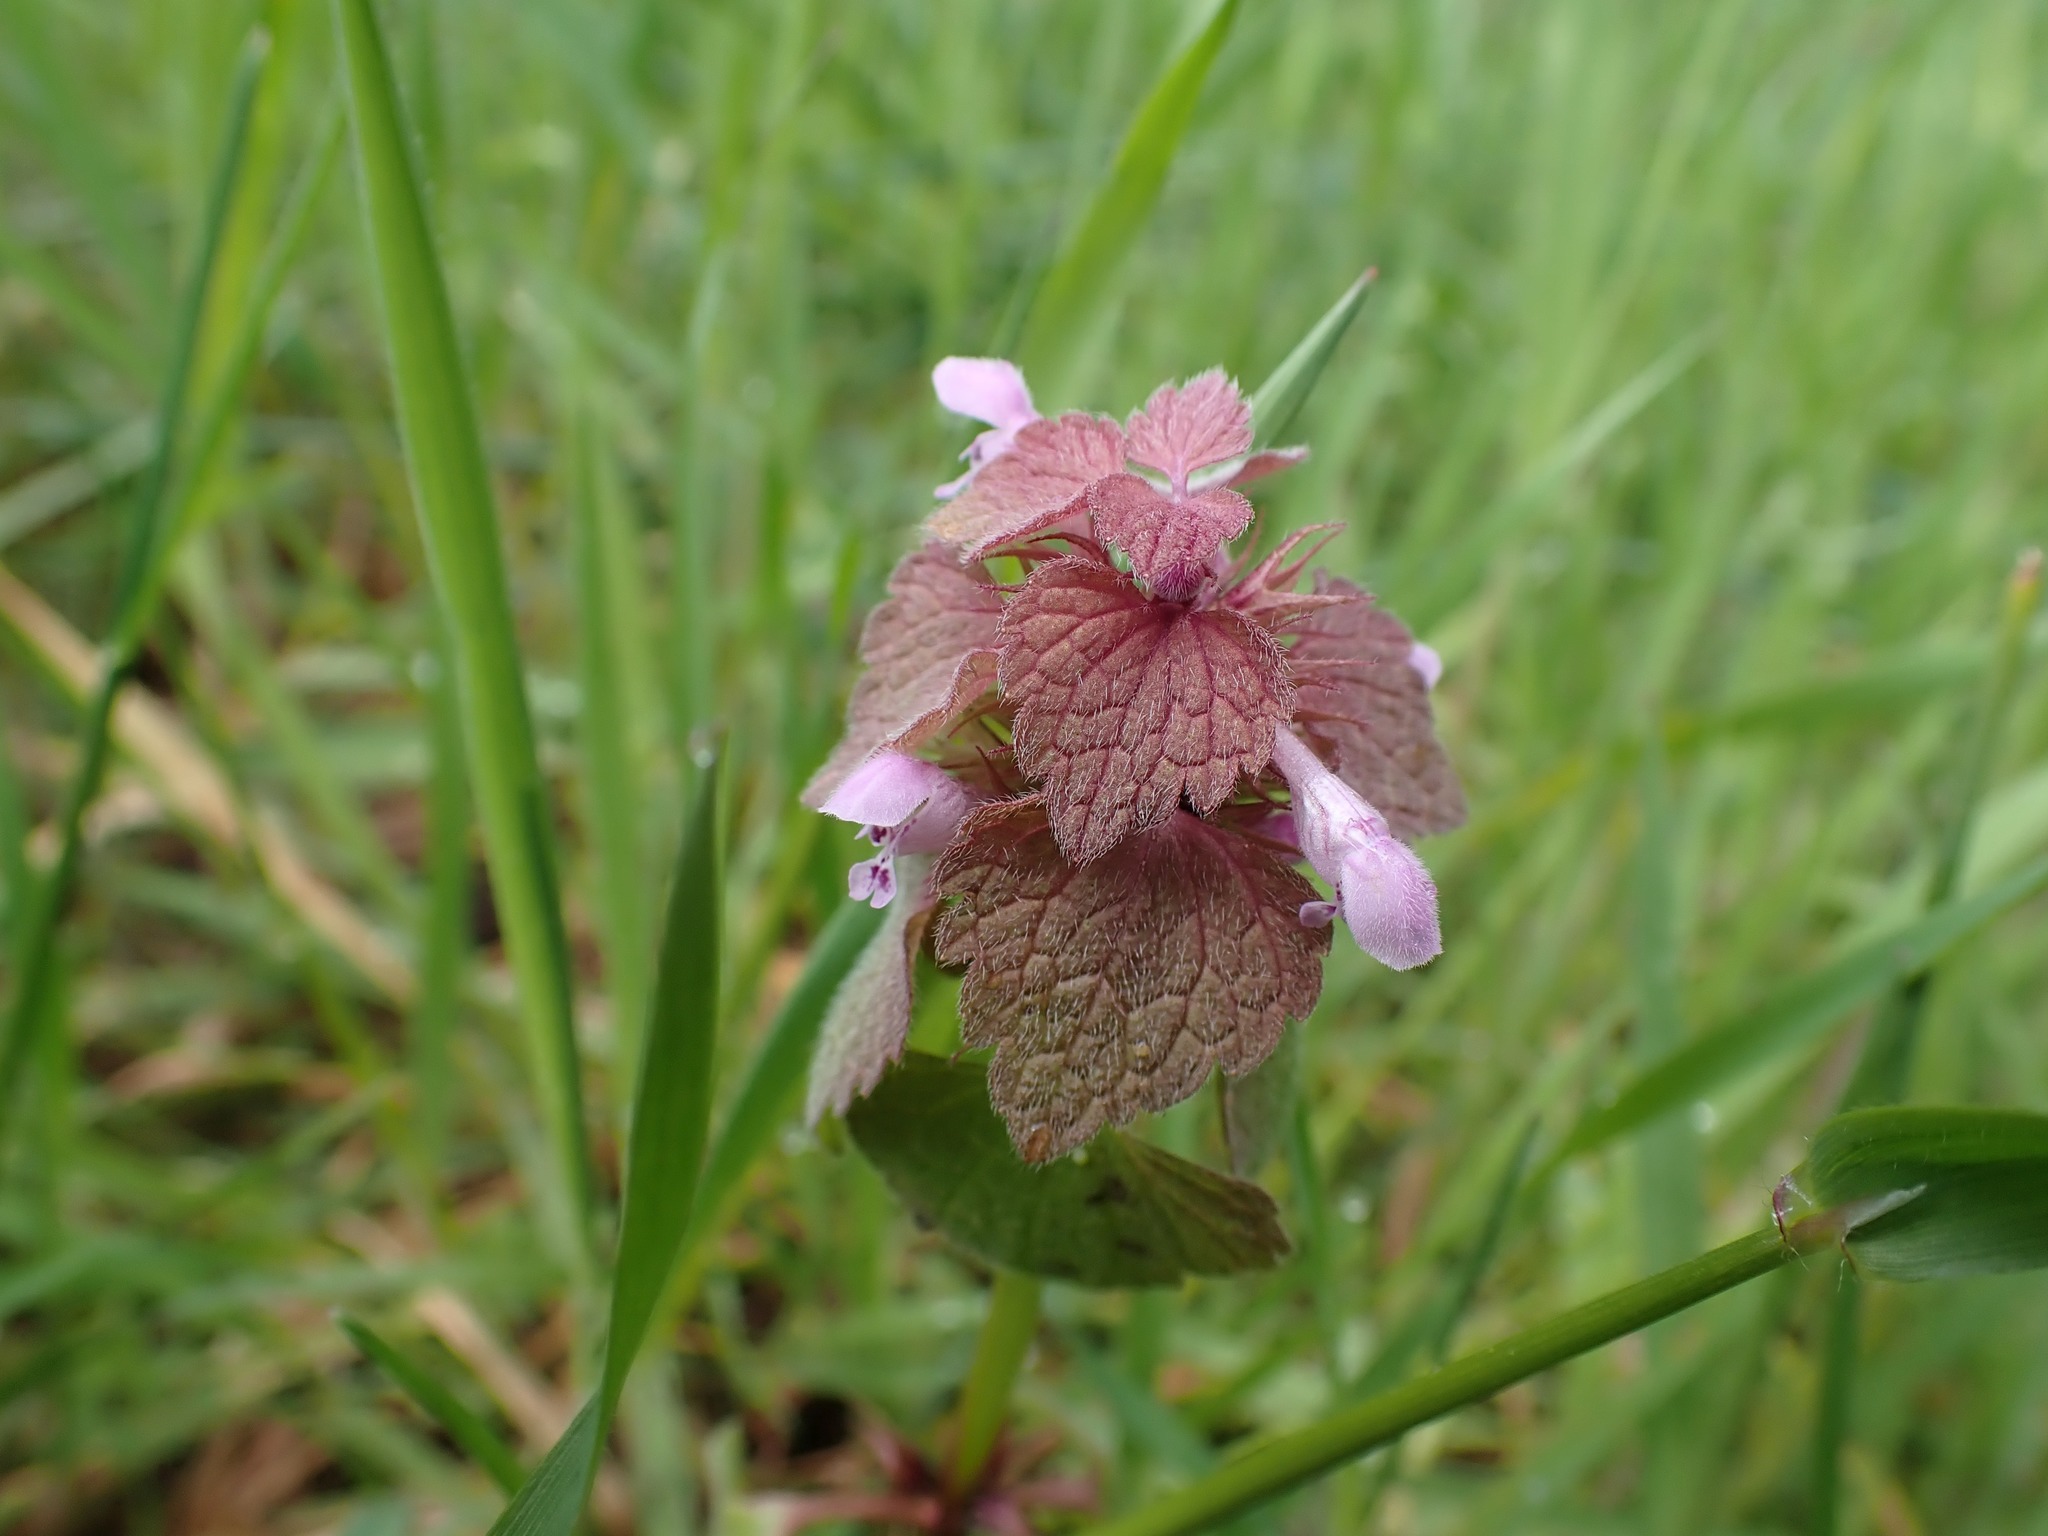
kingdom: Plantae
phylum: Tracheophyta
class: Magnoliopsida
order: Lamiales
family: Lamiaceae
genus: Lamium
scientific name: Lamium purpureum
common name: Red dead-nettle
